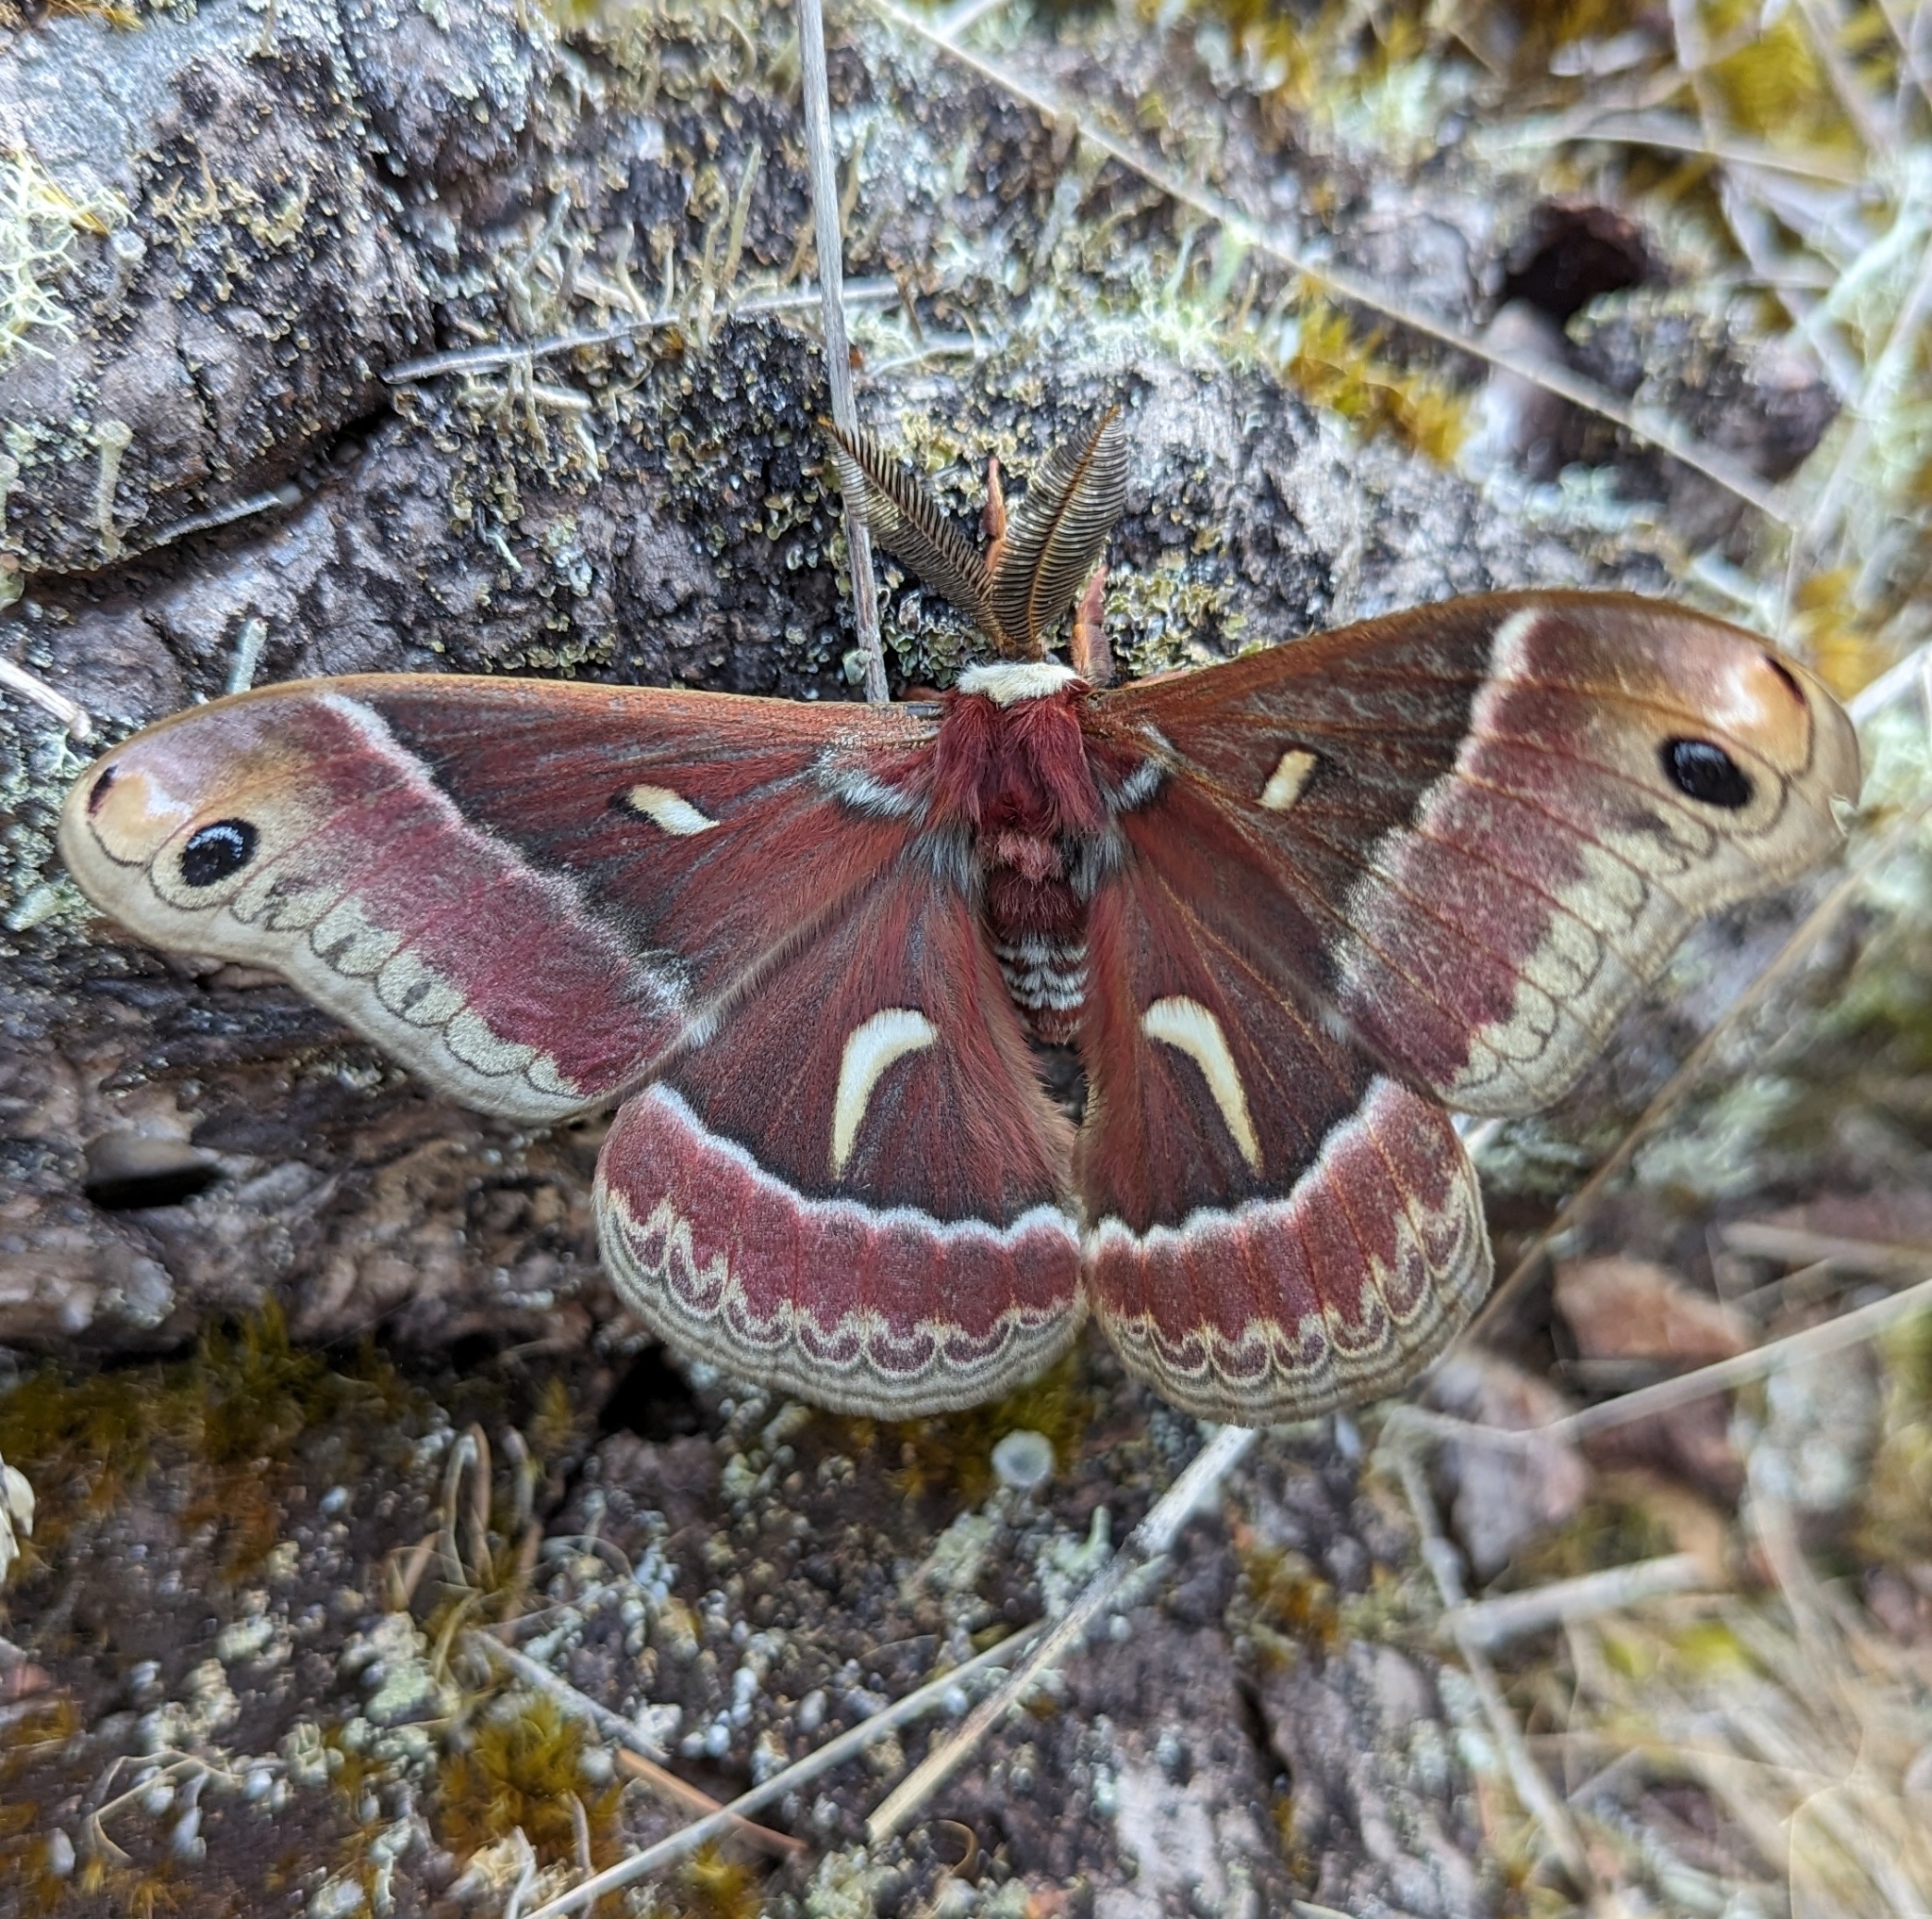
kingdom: Animalia
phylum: Arthropoda
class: Insecta
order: Lepidoptera
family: Saturniidae
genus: Hyalophora
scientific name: Hyalophora euryalus
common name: Ceanothus silkmoth
